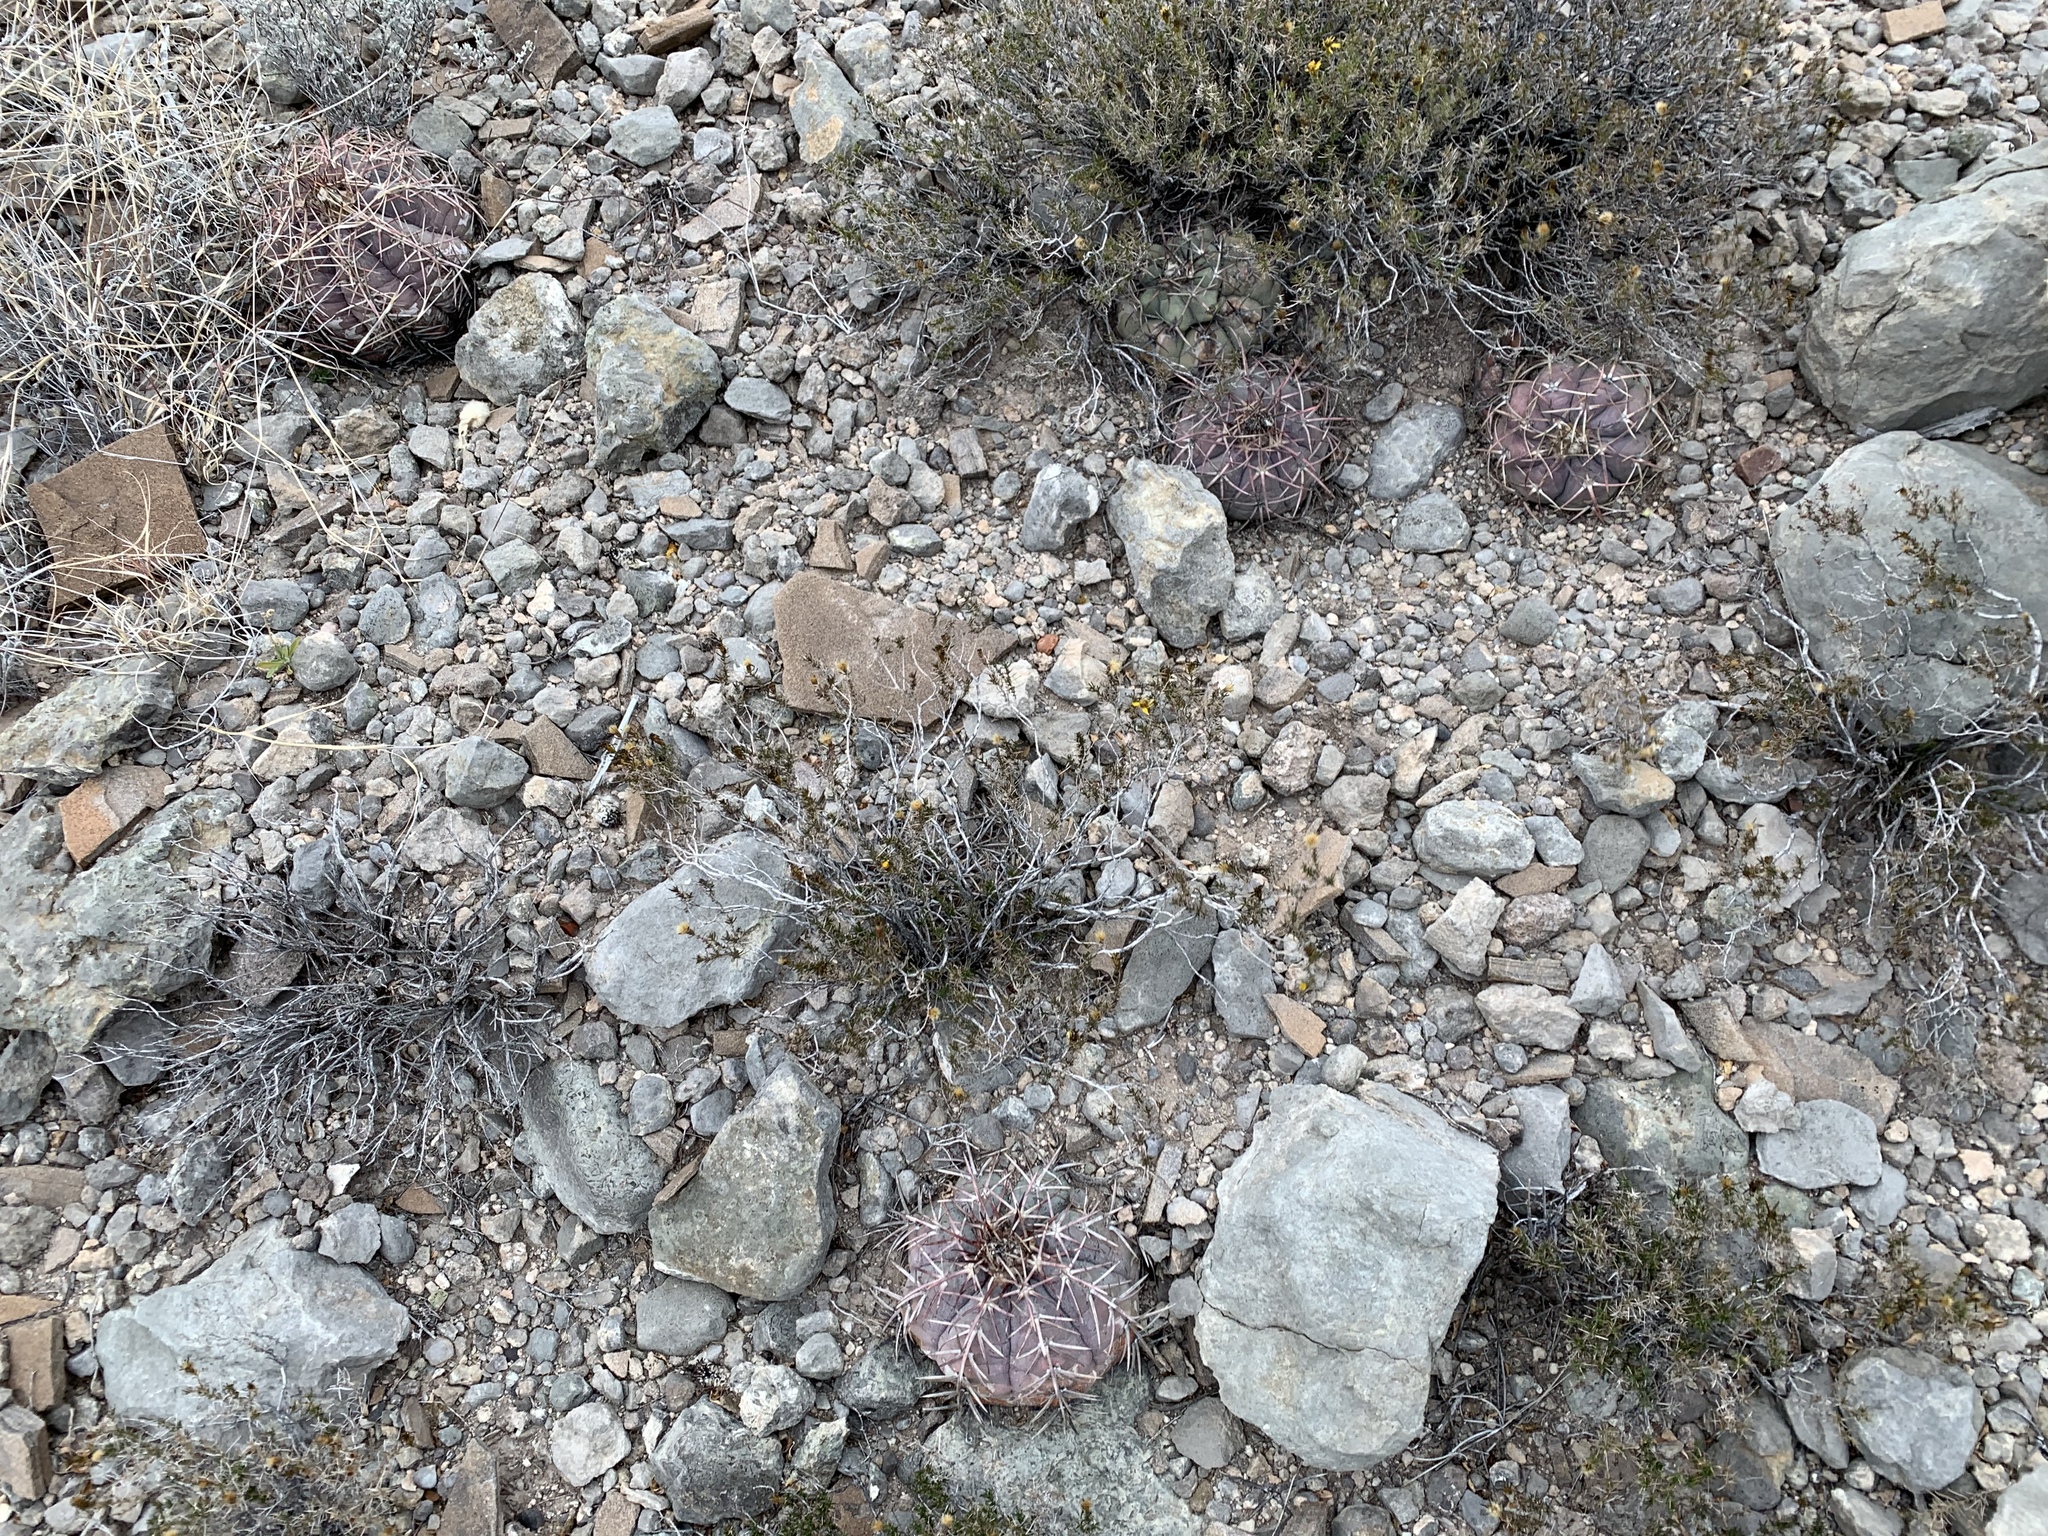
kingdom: Plantae
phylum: Tracheophyta
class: Magnoliopsida
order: Caryophyllales
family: Cactaceae
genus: Echinocactus
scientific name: Echinocactus horizonthalonius
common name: Devilshead
